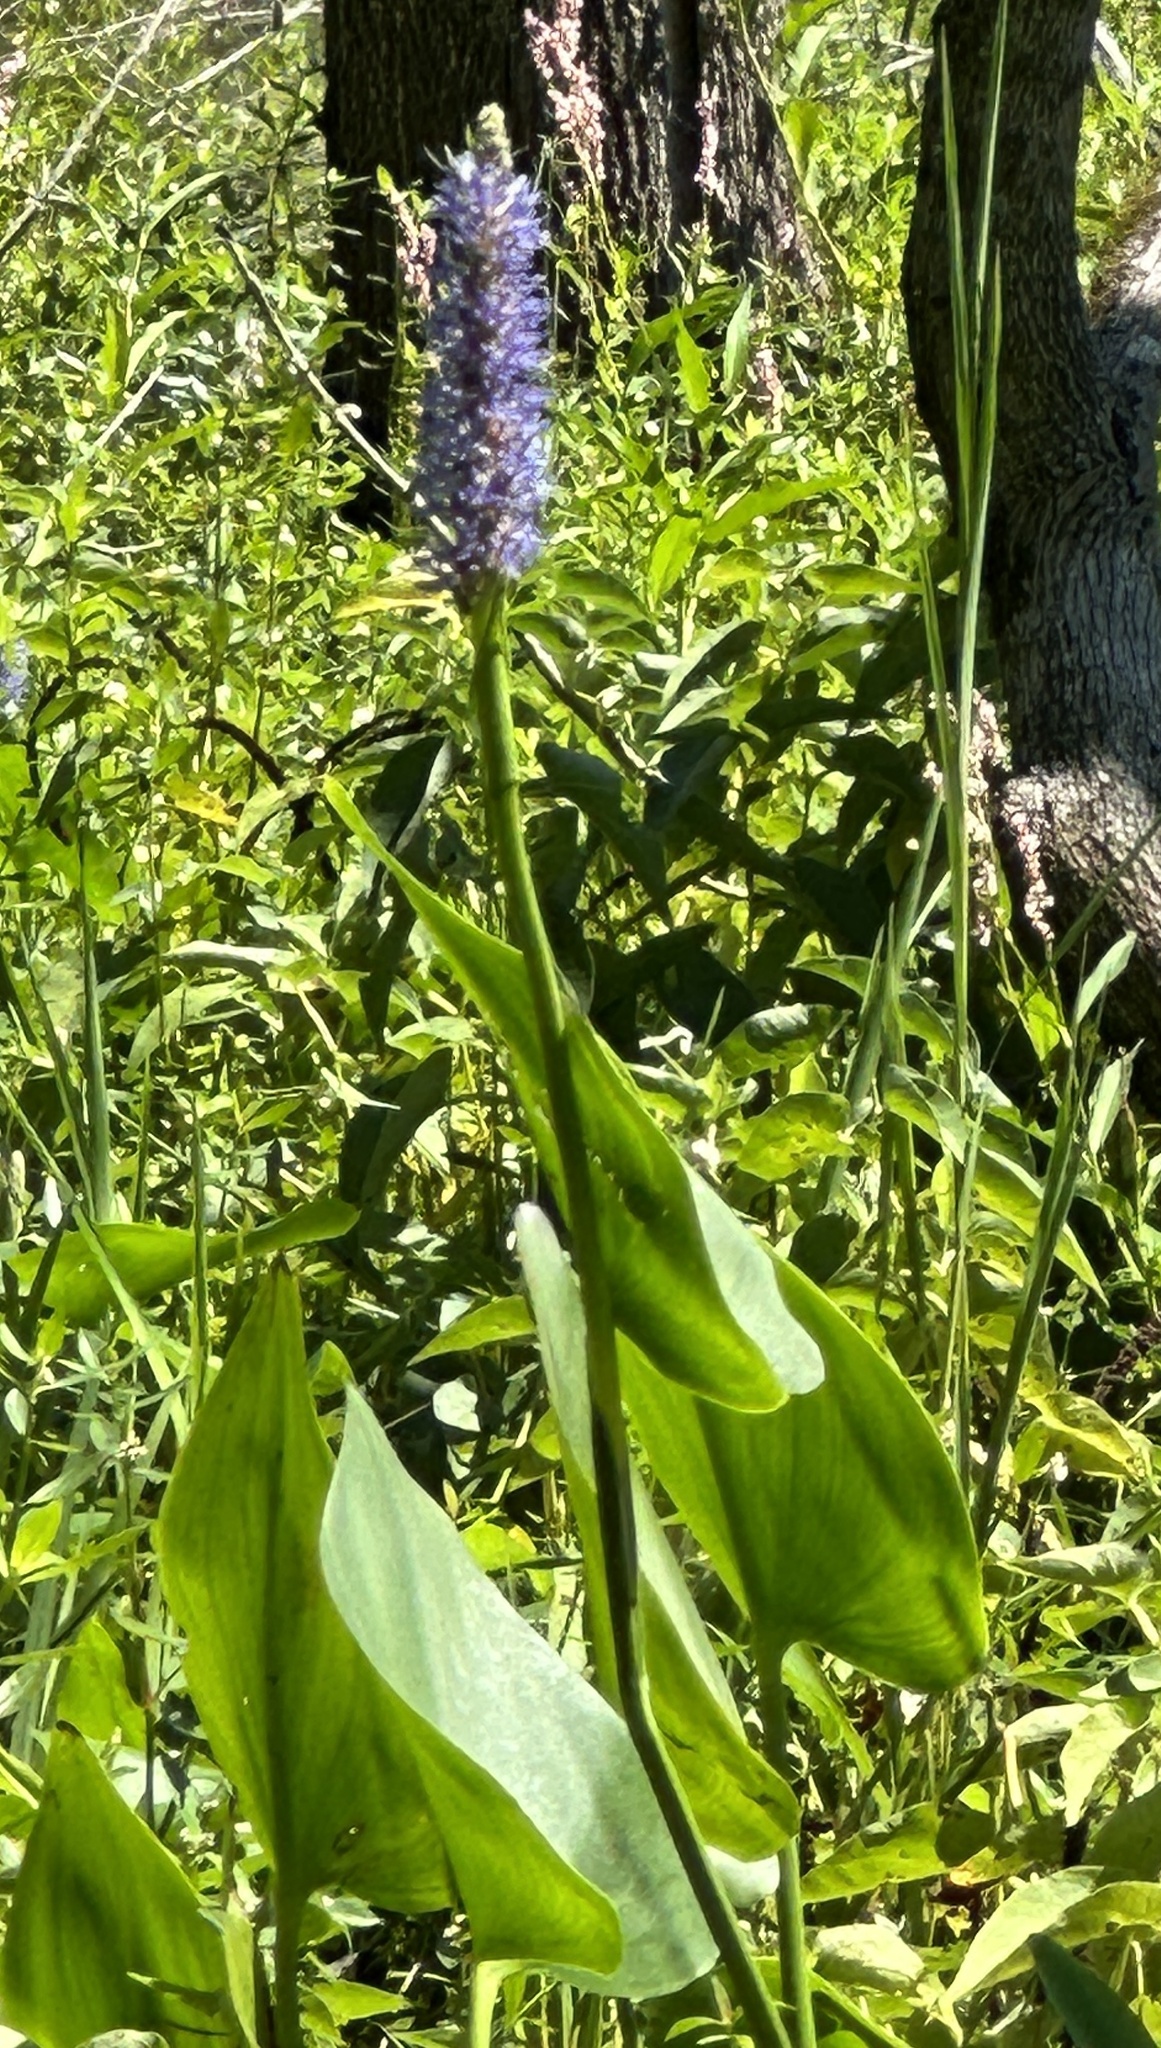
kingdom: Plantae
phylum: Tracheophyta
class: Liliopsida
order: Commelinales
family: Pontederiaceae
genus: Pontederia
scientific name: Pontederia cordata
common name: Pickerelweed
